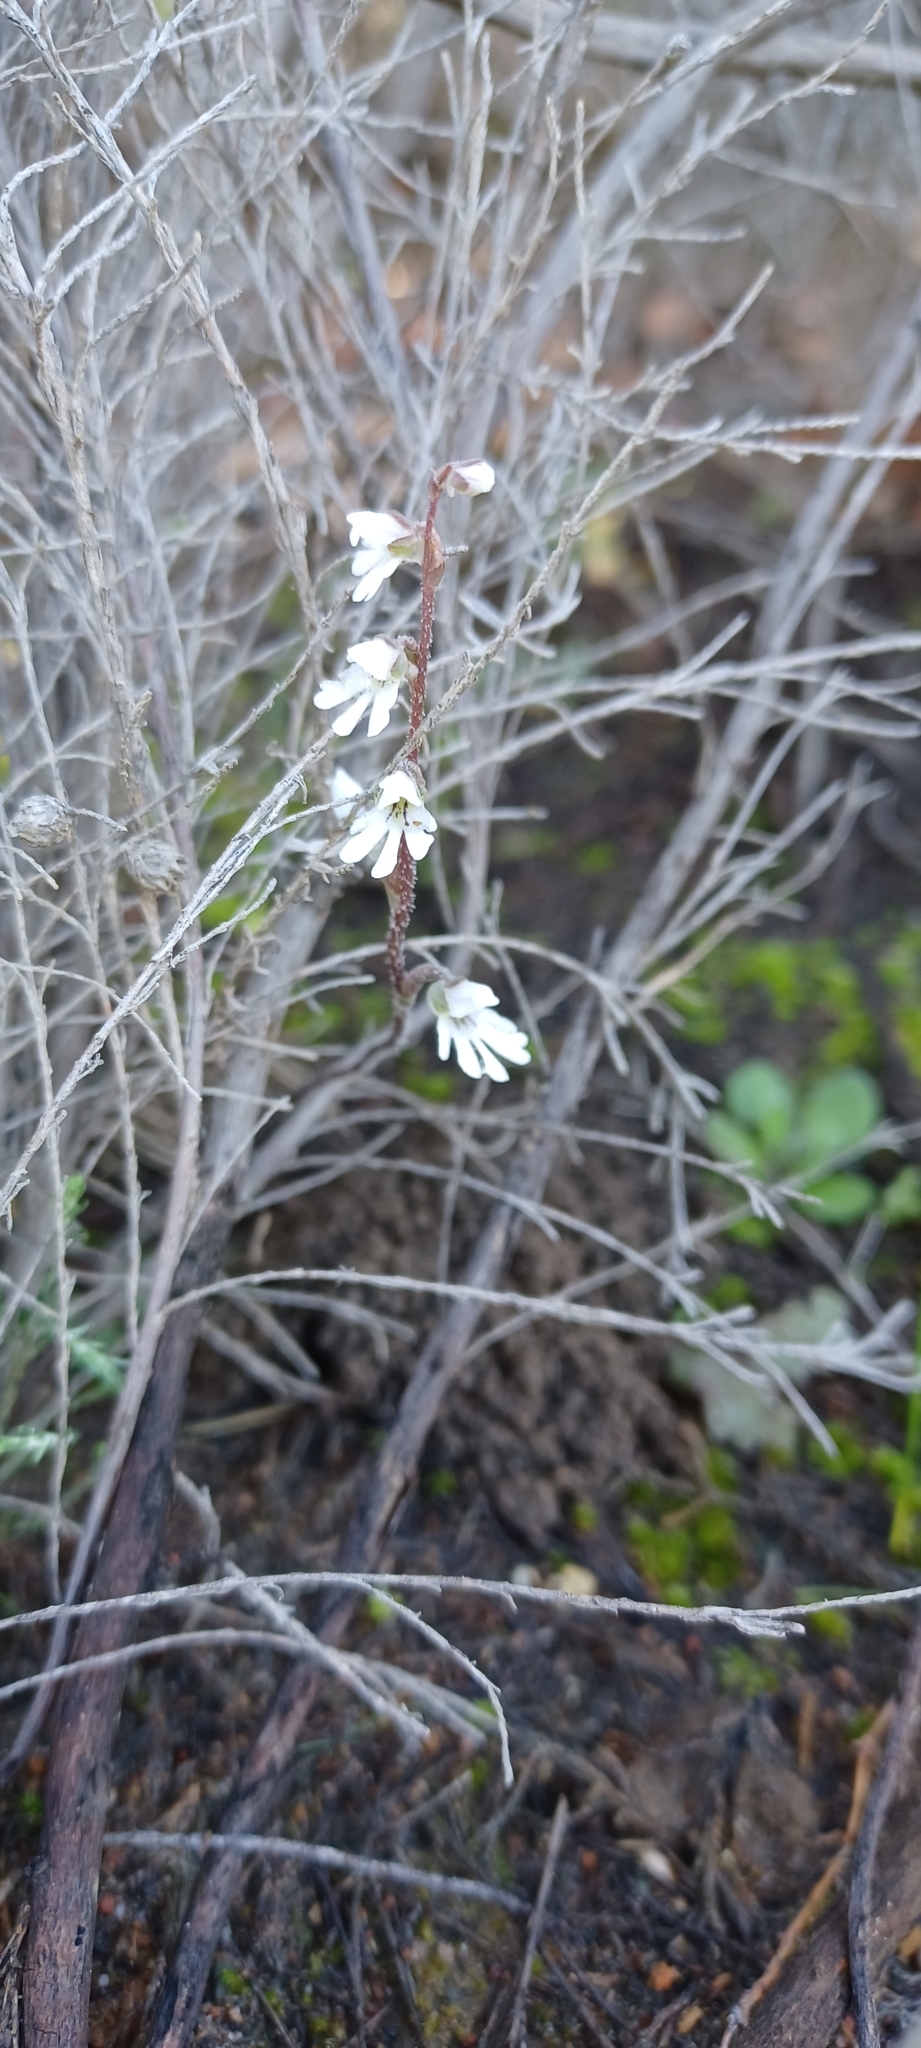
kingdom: Plantae
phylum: Tracheophyta
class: Liliopsida
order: Asparagales
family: Orchidaceae
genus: Holothrix
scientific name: Holothrix aspera
